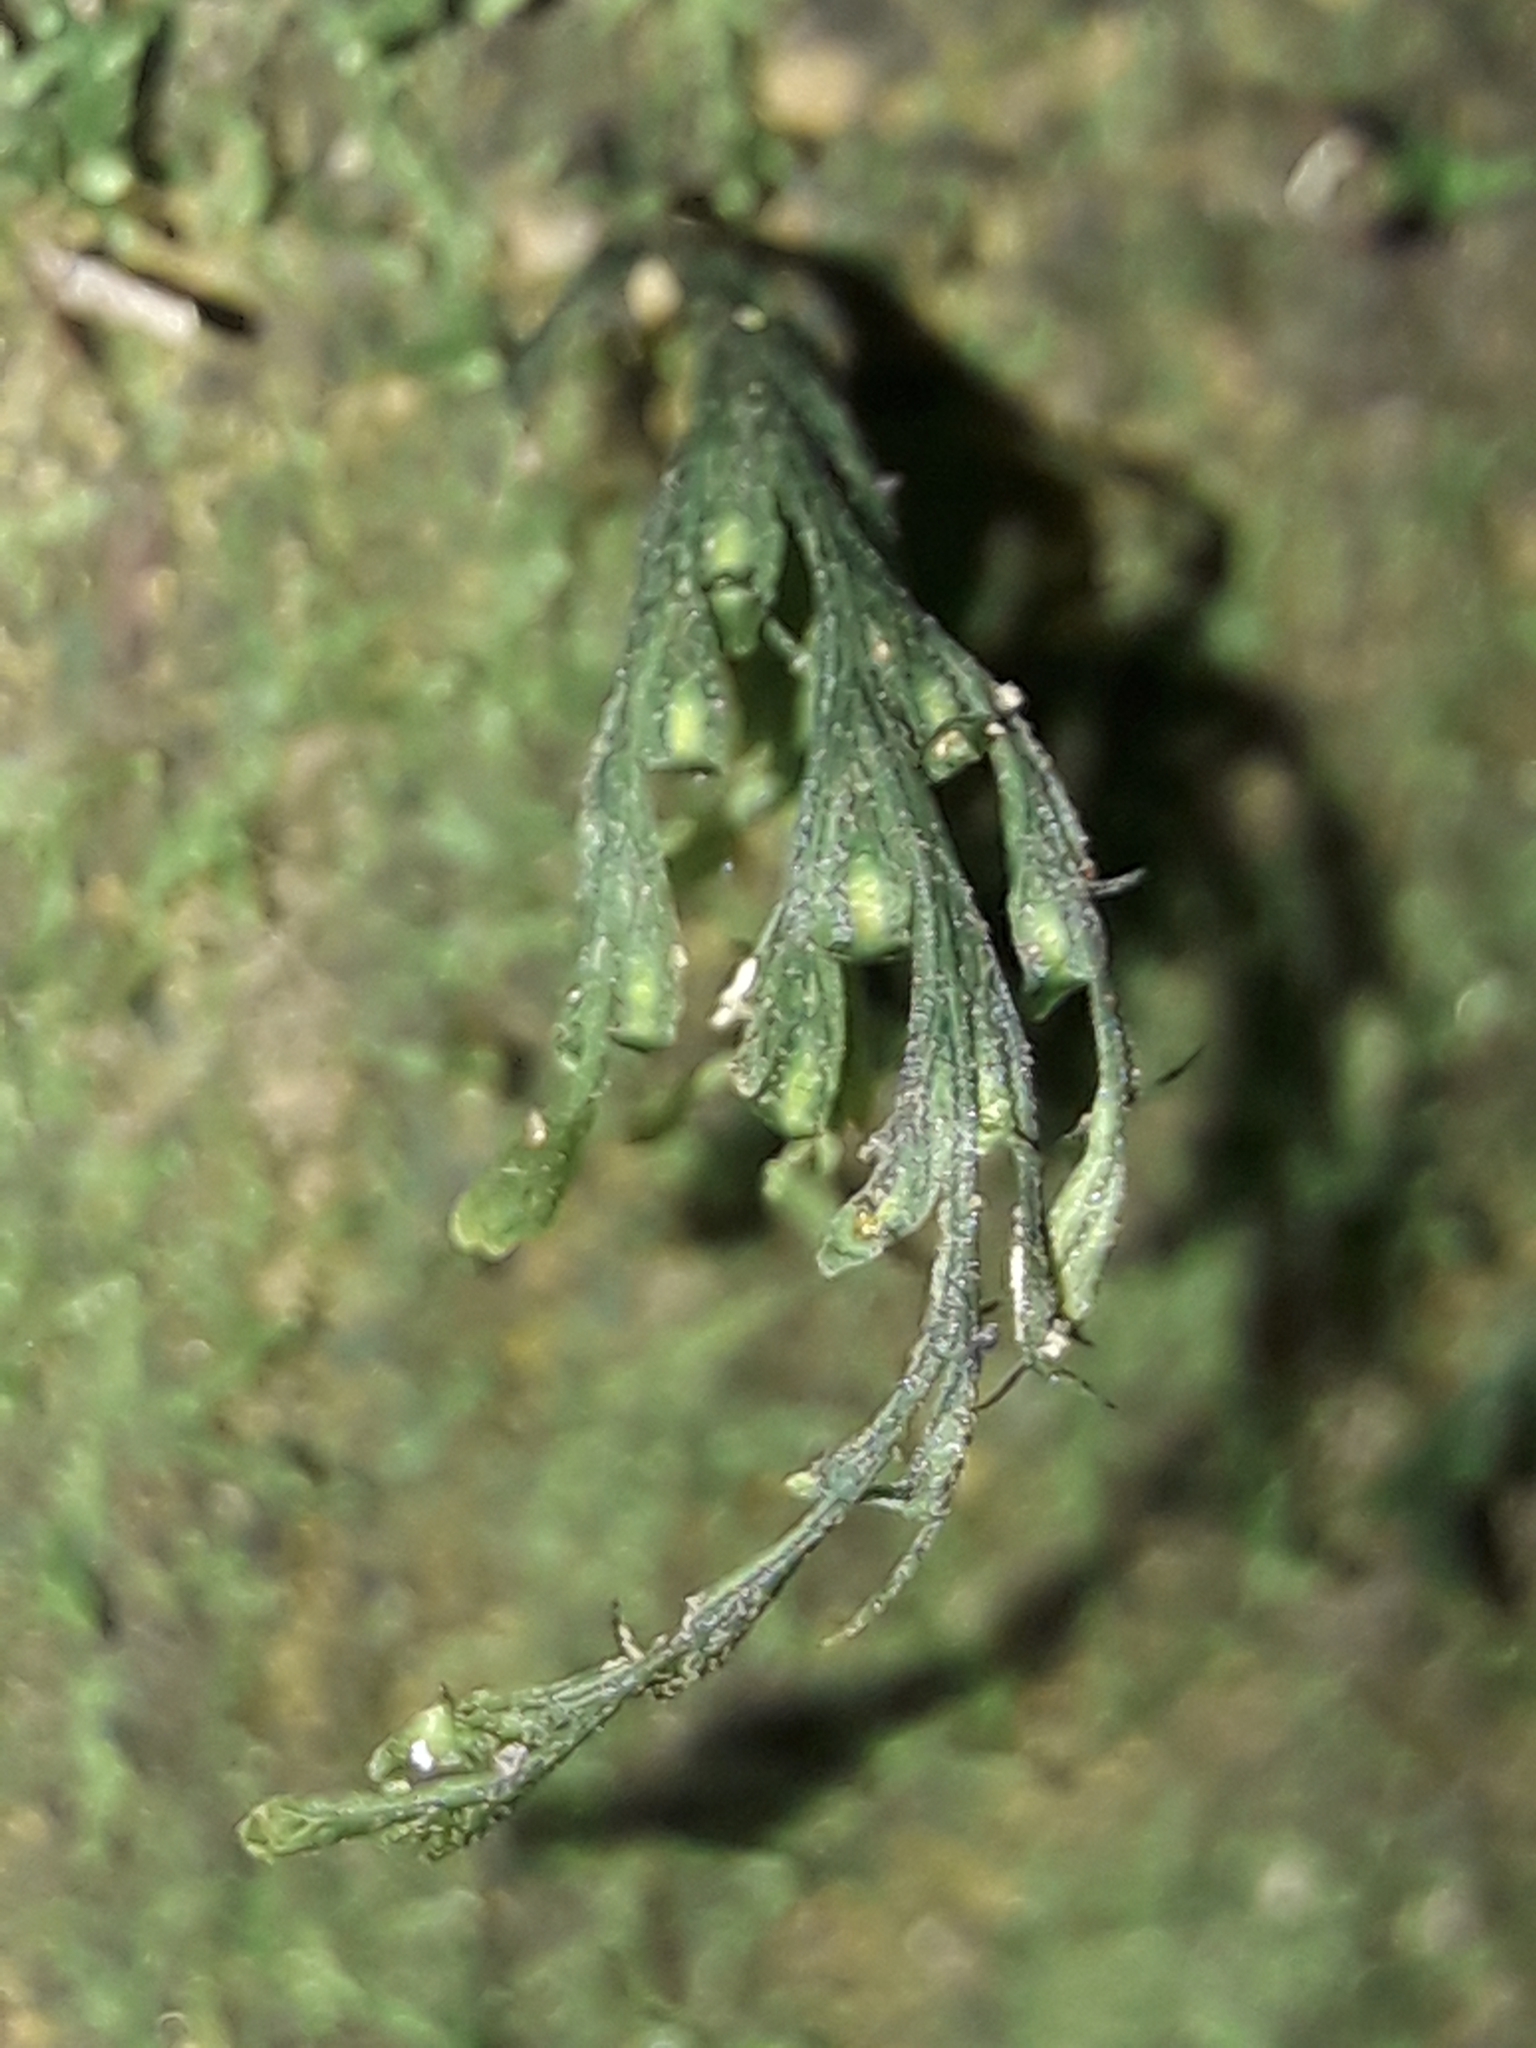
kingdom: Plantae
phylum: Tracheophyta
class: Polypodiopsida
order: Hymenophyllales
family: Hymenophyllaceae
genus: Crepidomanes
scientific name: Crepidomanes bipunctatum
